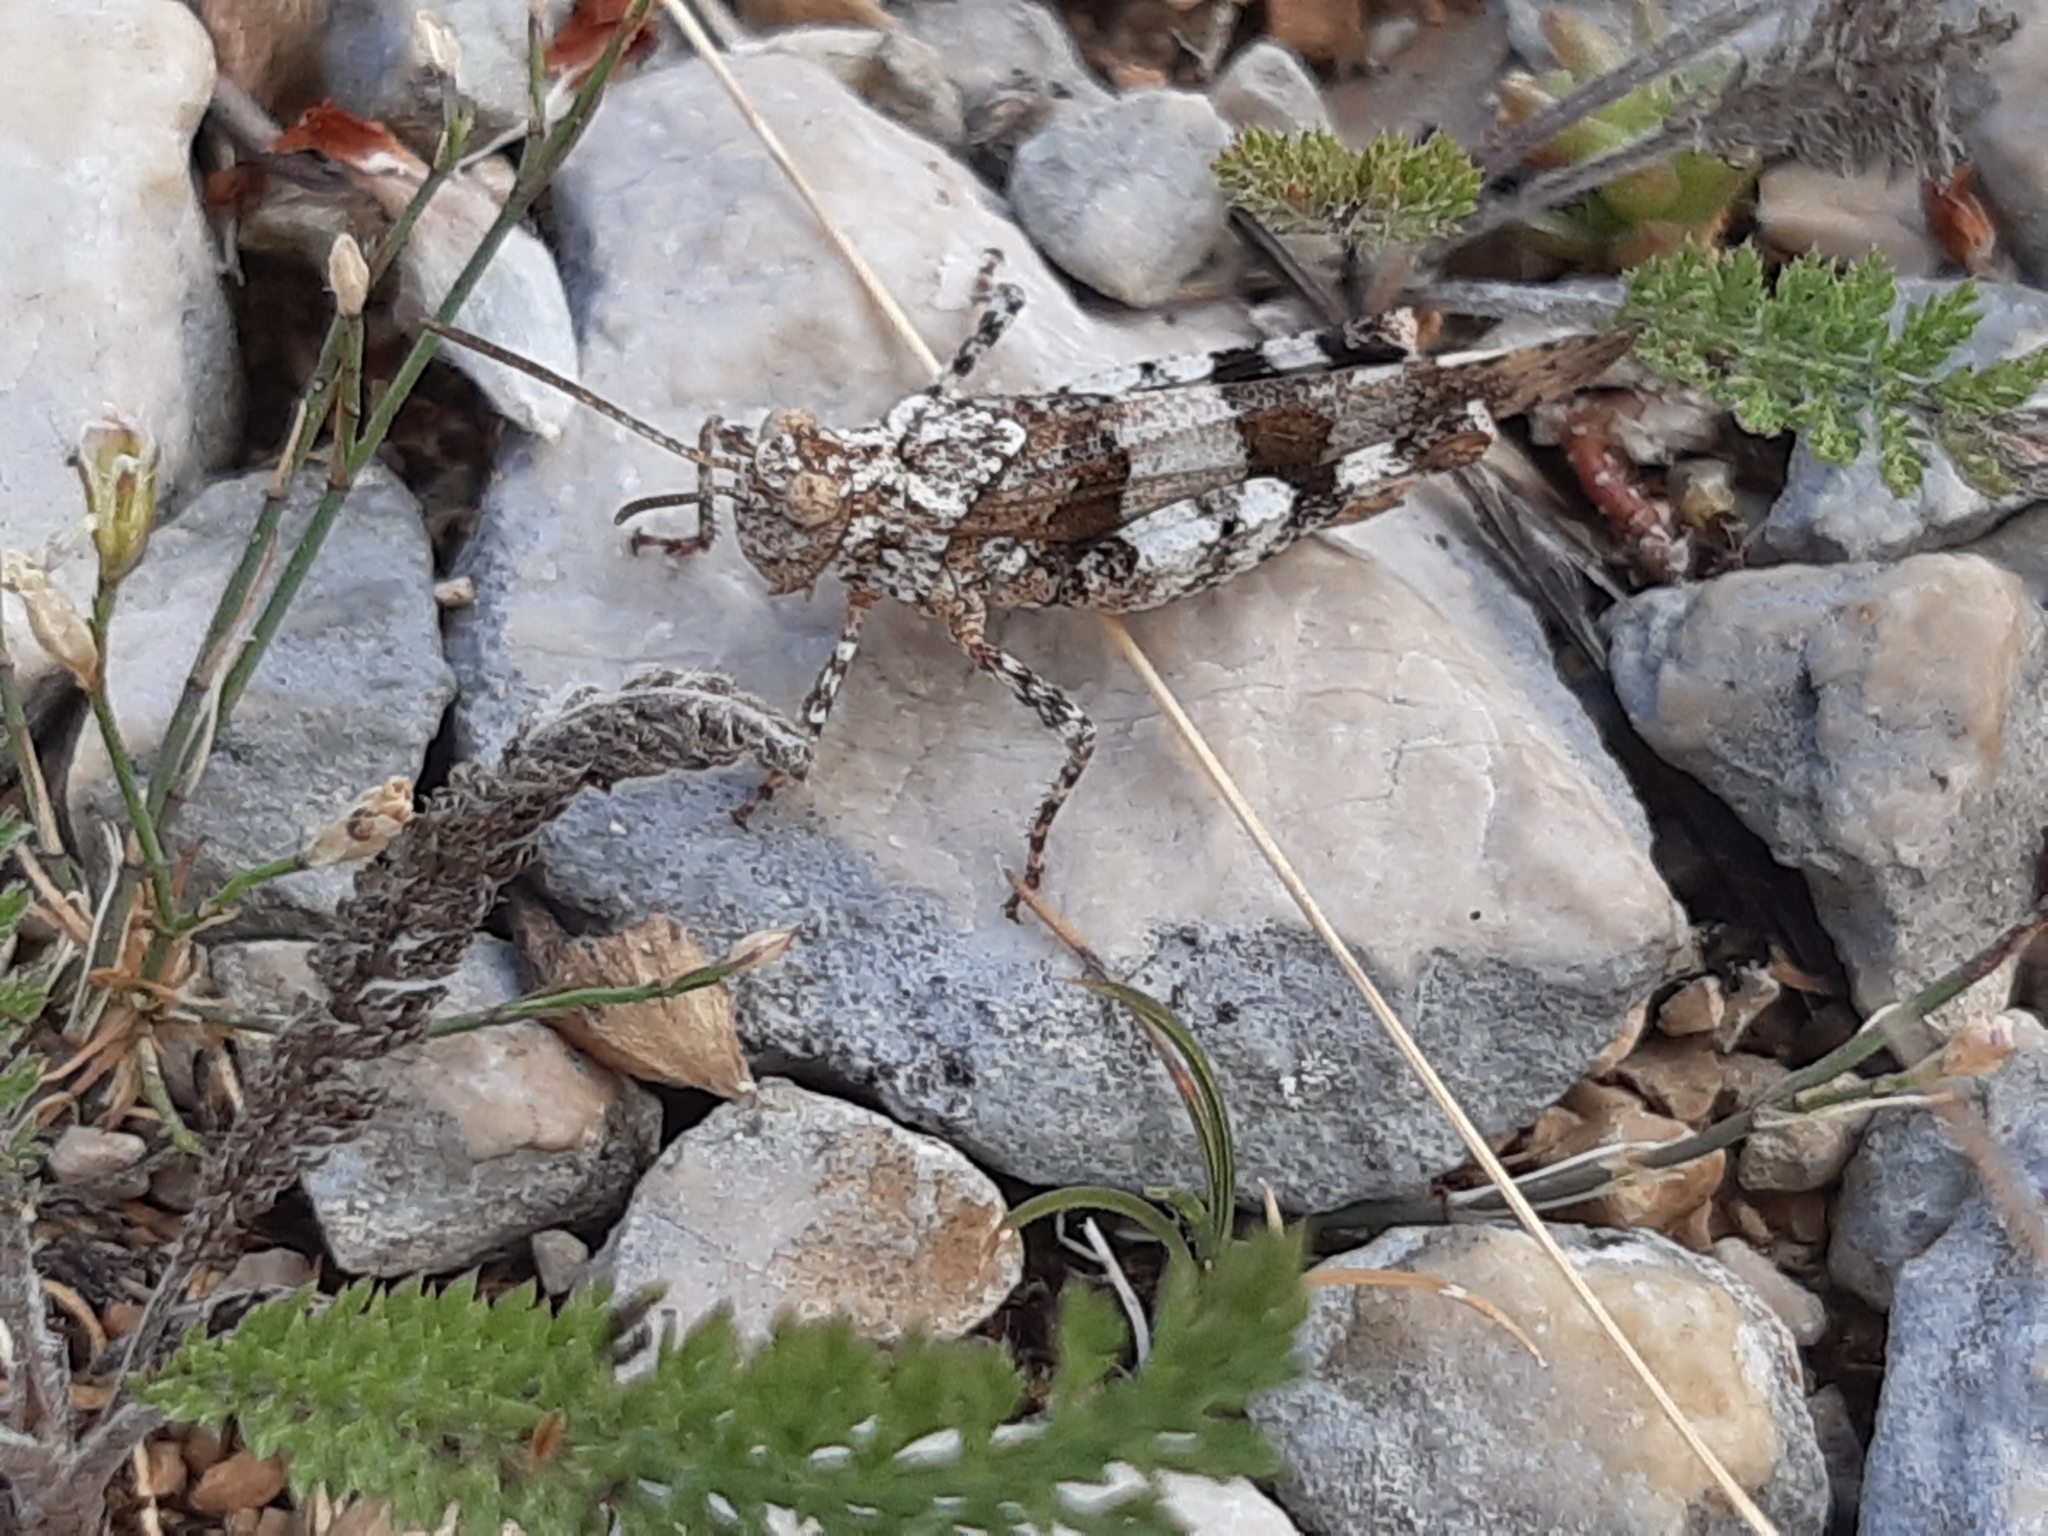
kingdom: Animalia
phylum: Arthropoda
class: Insecta
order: Orthoptera
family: Acrididae
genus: Oedipoda
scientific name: Oedipoda caerulescens
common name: Blue-winged grasshopper
